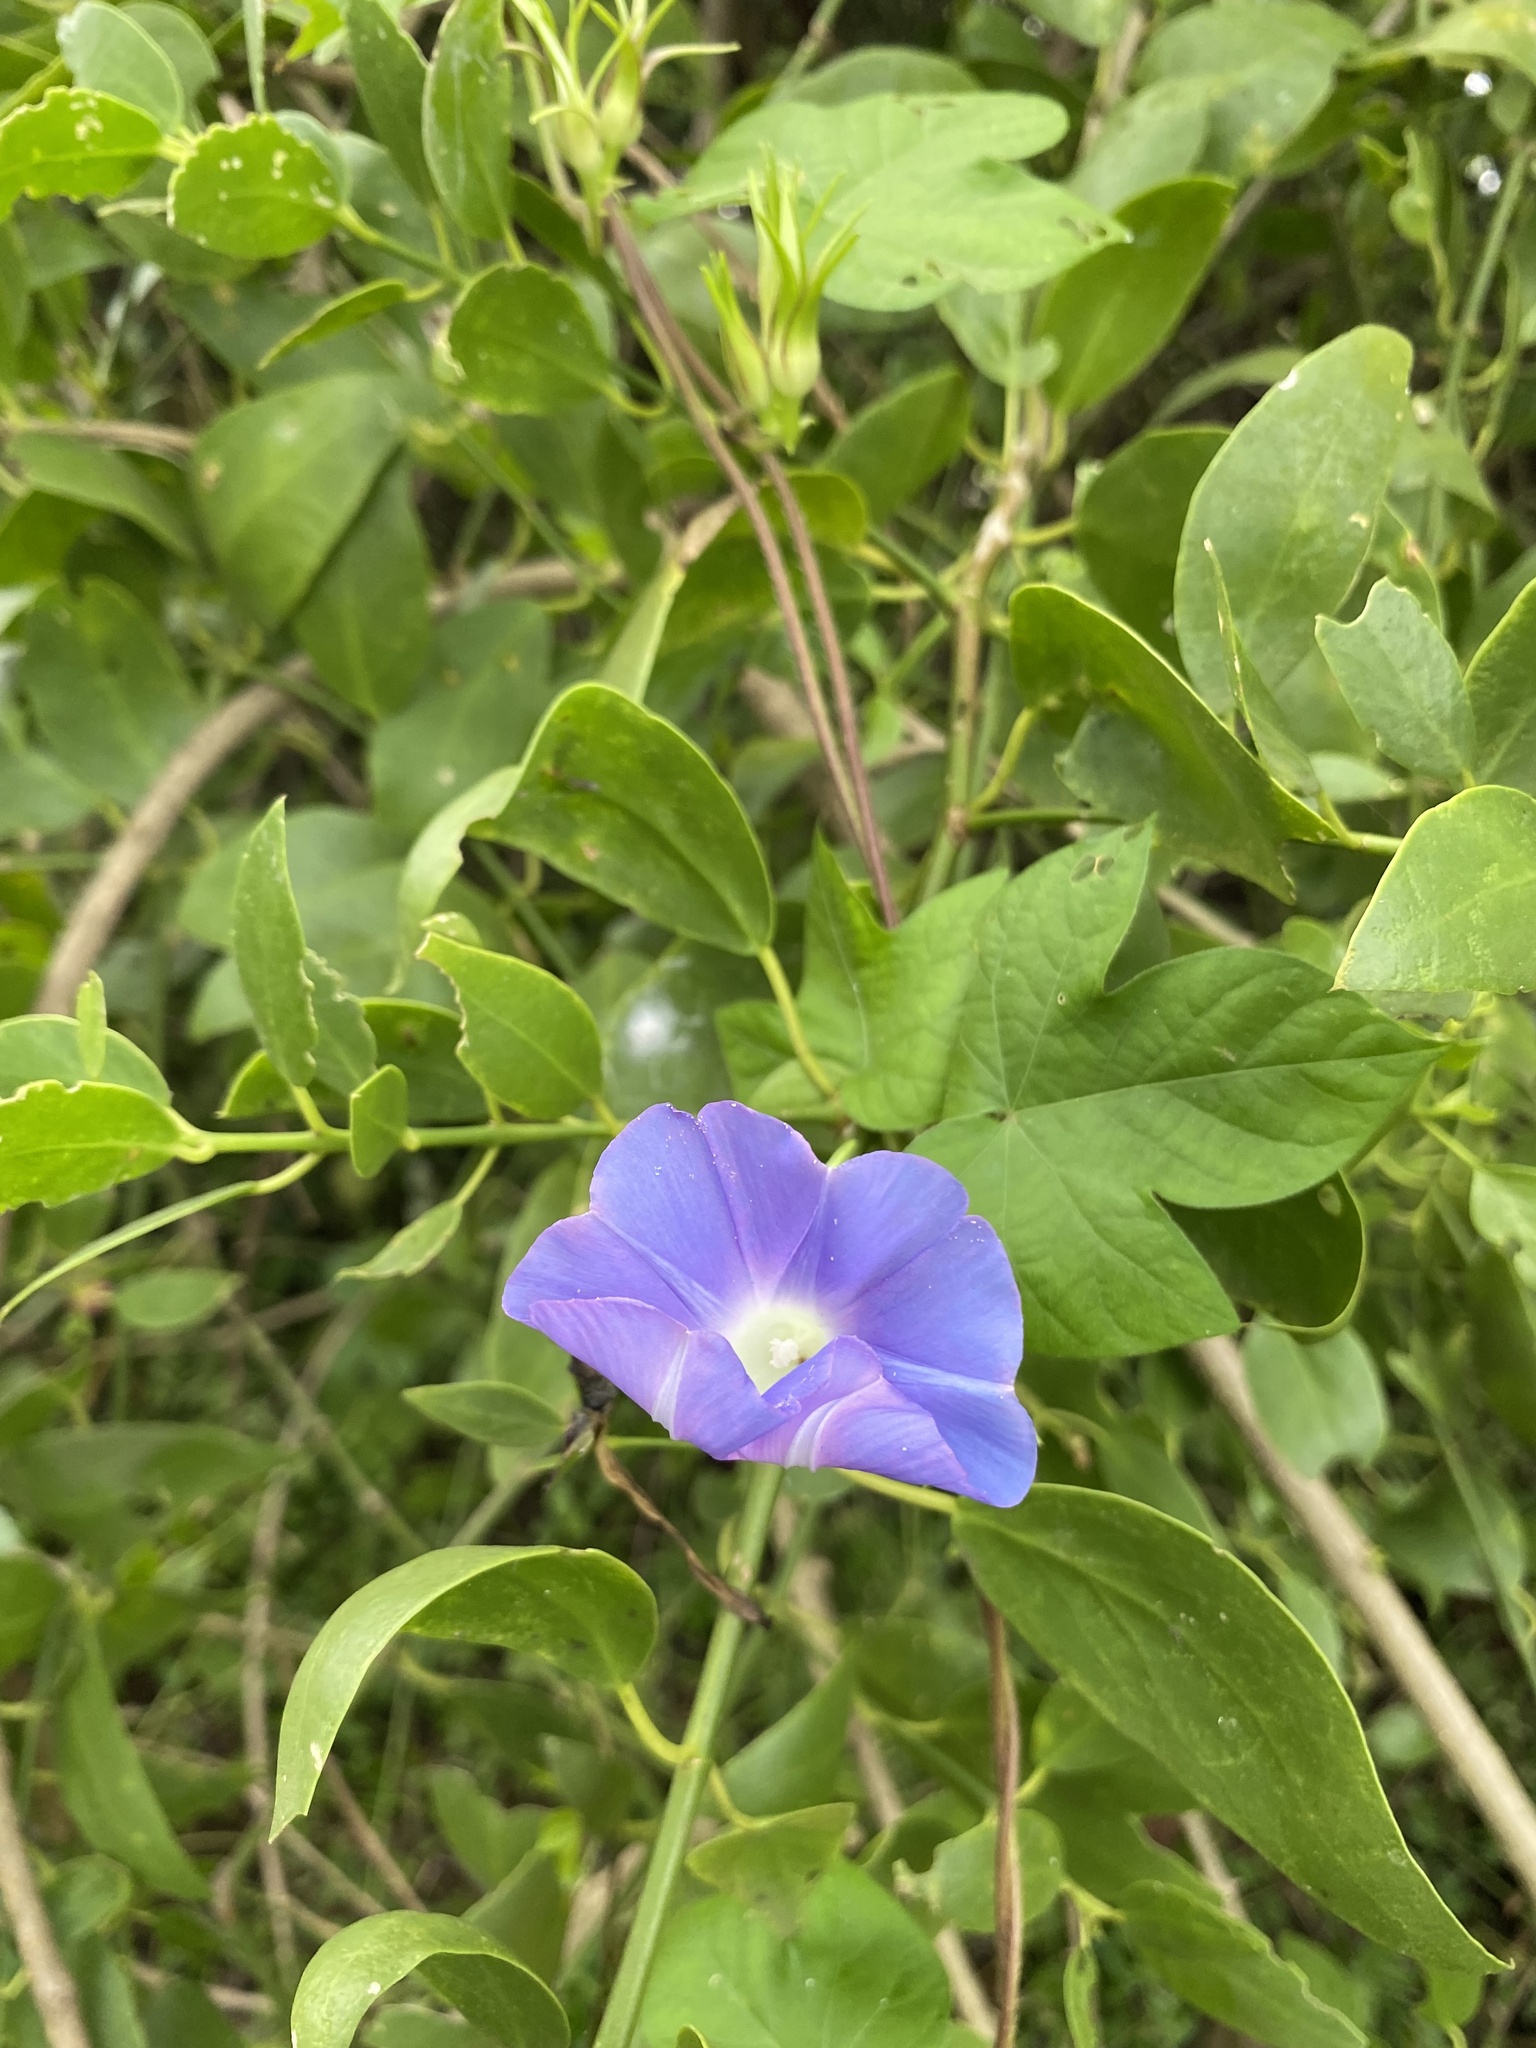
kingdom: Plantae
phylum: Tracheophyta
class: Magnoliopsida
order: Solanales
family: Convolvulaceae
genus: Ipomoea
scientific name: Ipomoea hederacea
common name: Ivy-leaved morning-glory
